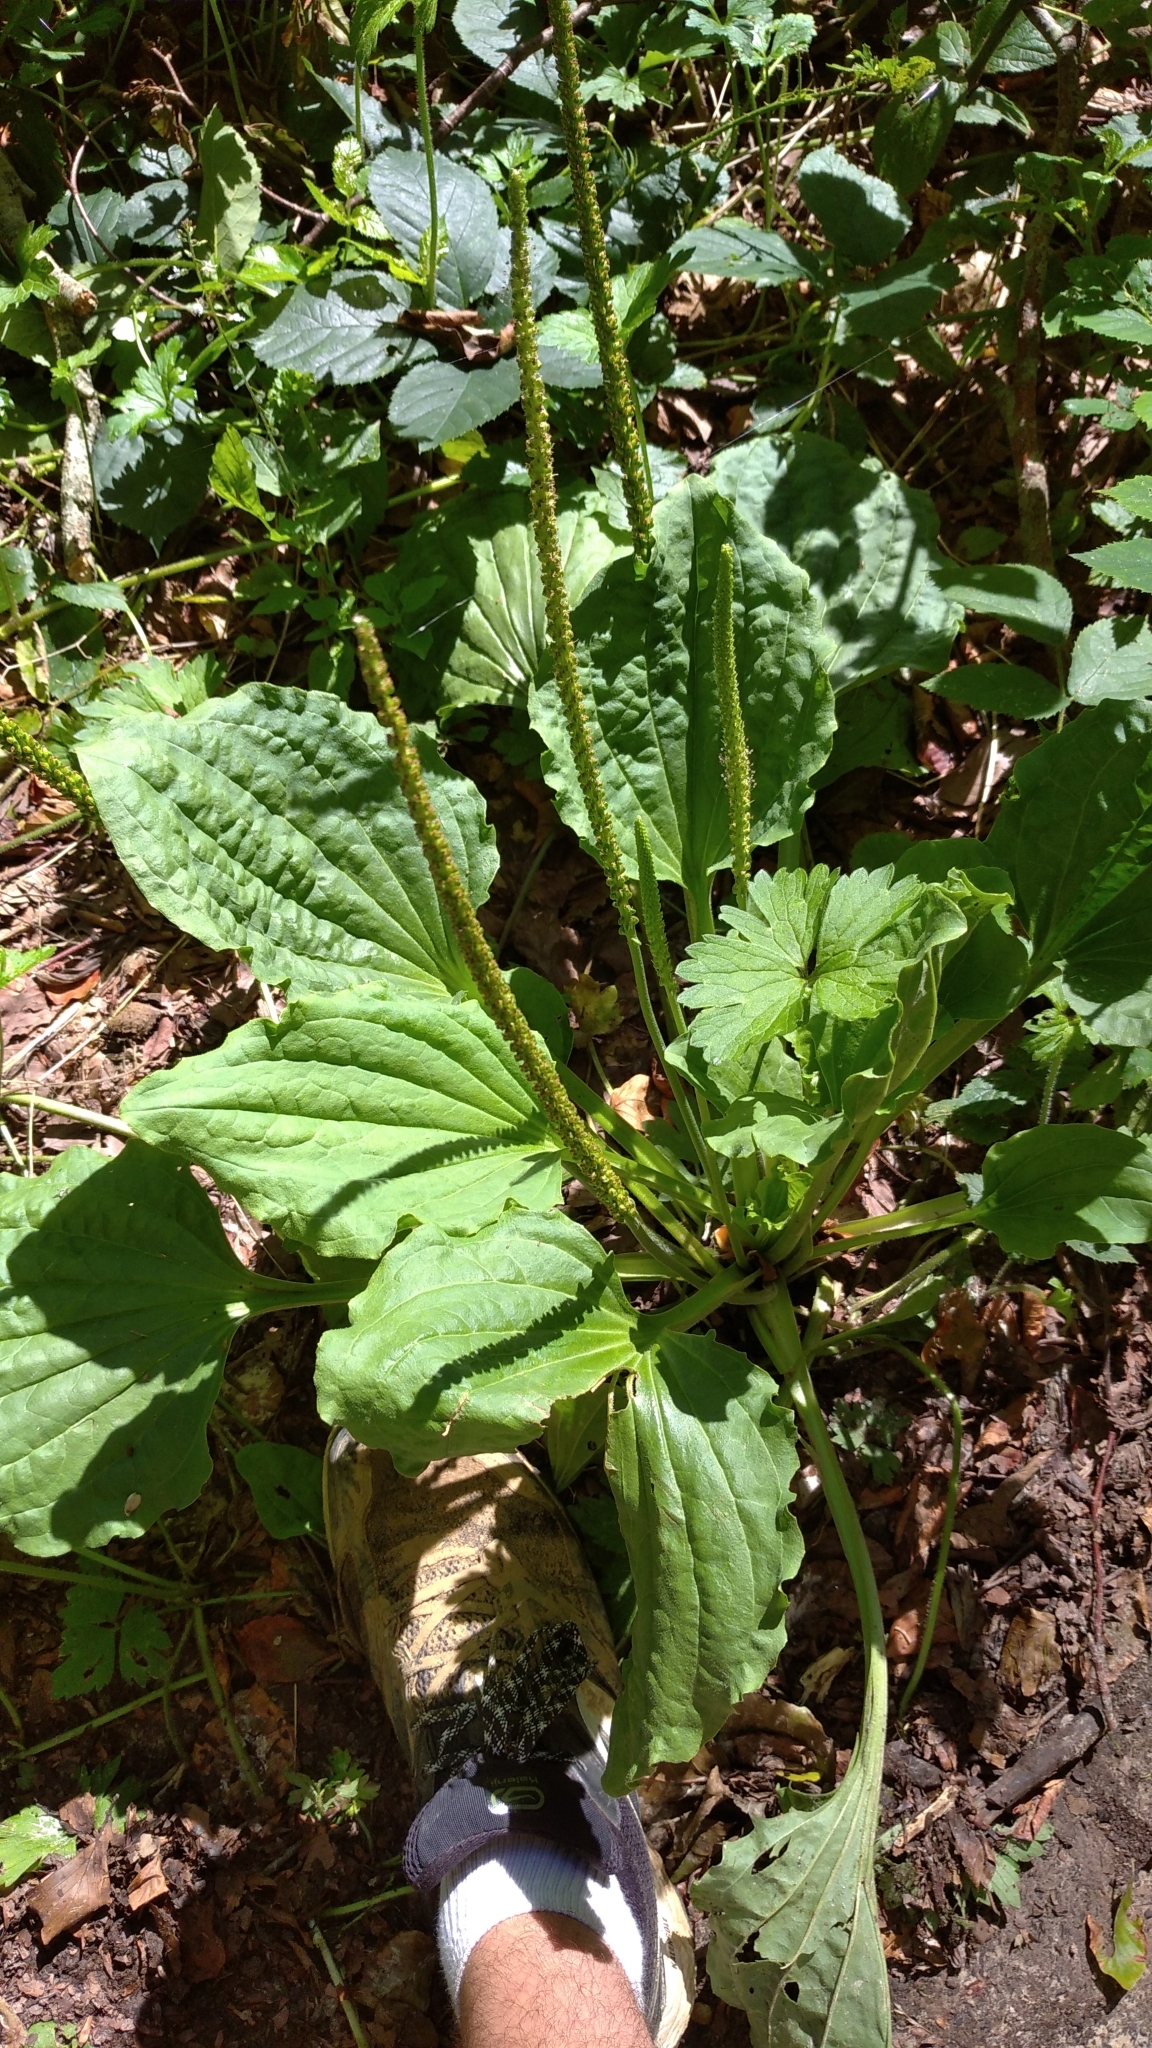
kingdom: Plantae
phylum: Tracheophyta
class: Magnoliopsida
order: Lamiales
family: Plantaginaceae
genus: Plantago
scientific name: Plantago major
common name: Common plantain
